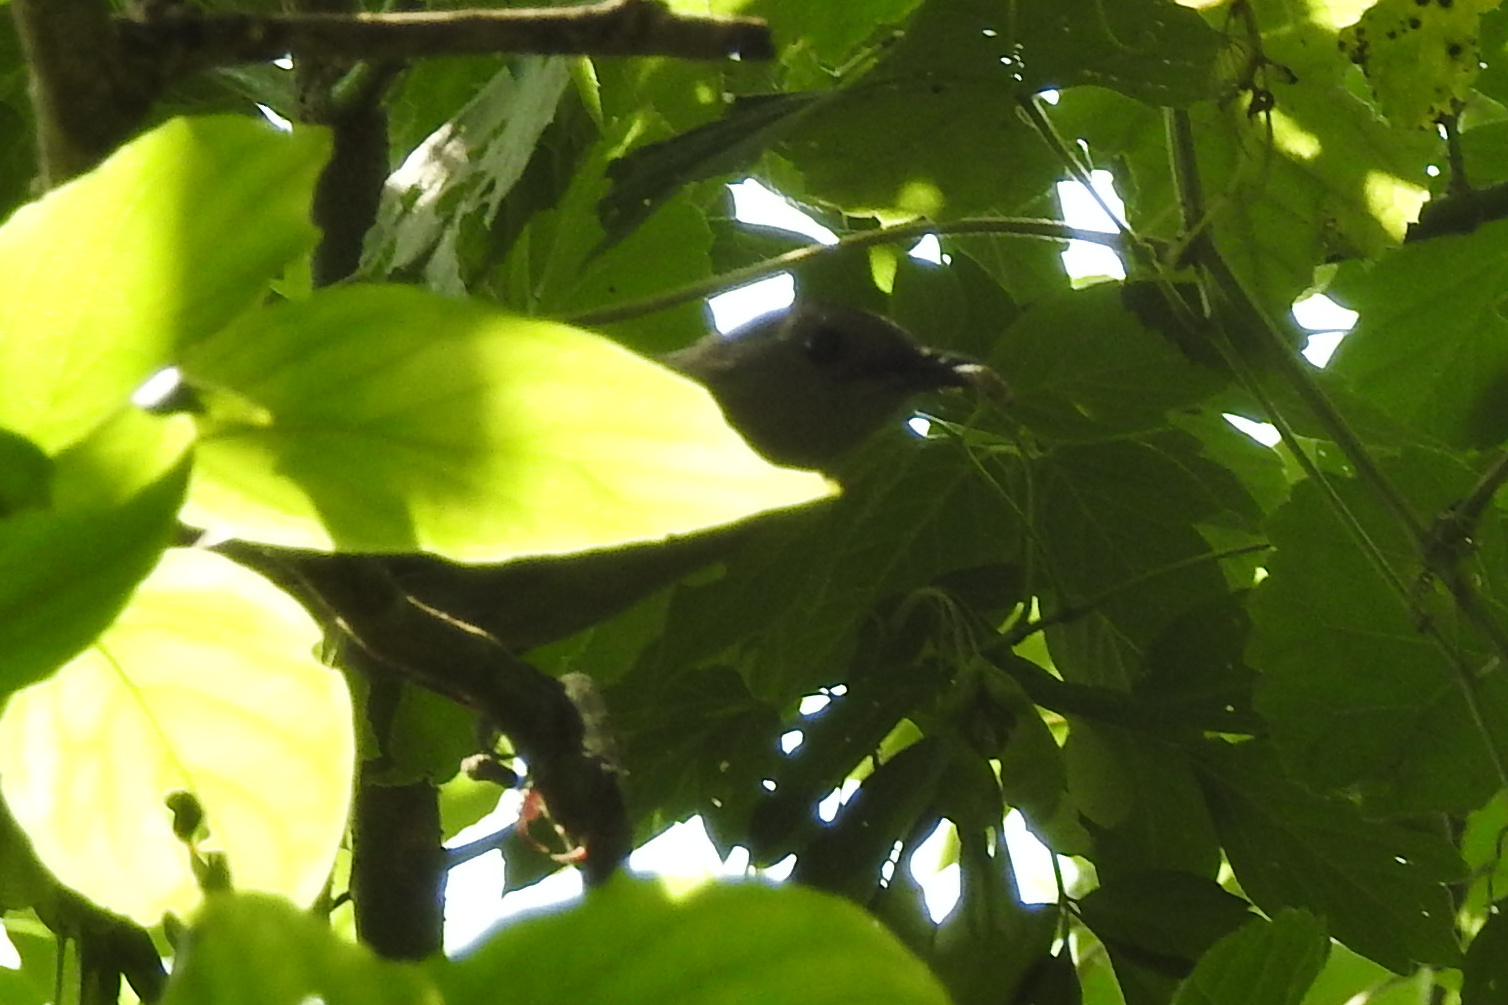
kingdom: Animalia
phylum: Chordata
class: Aves
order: Passeriformes
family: Mimidae
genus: Dumetella
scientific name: Dumetella carolinensis
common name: Gray catbird
